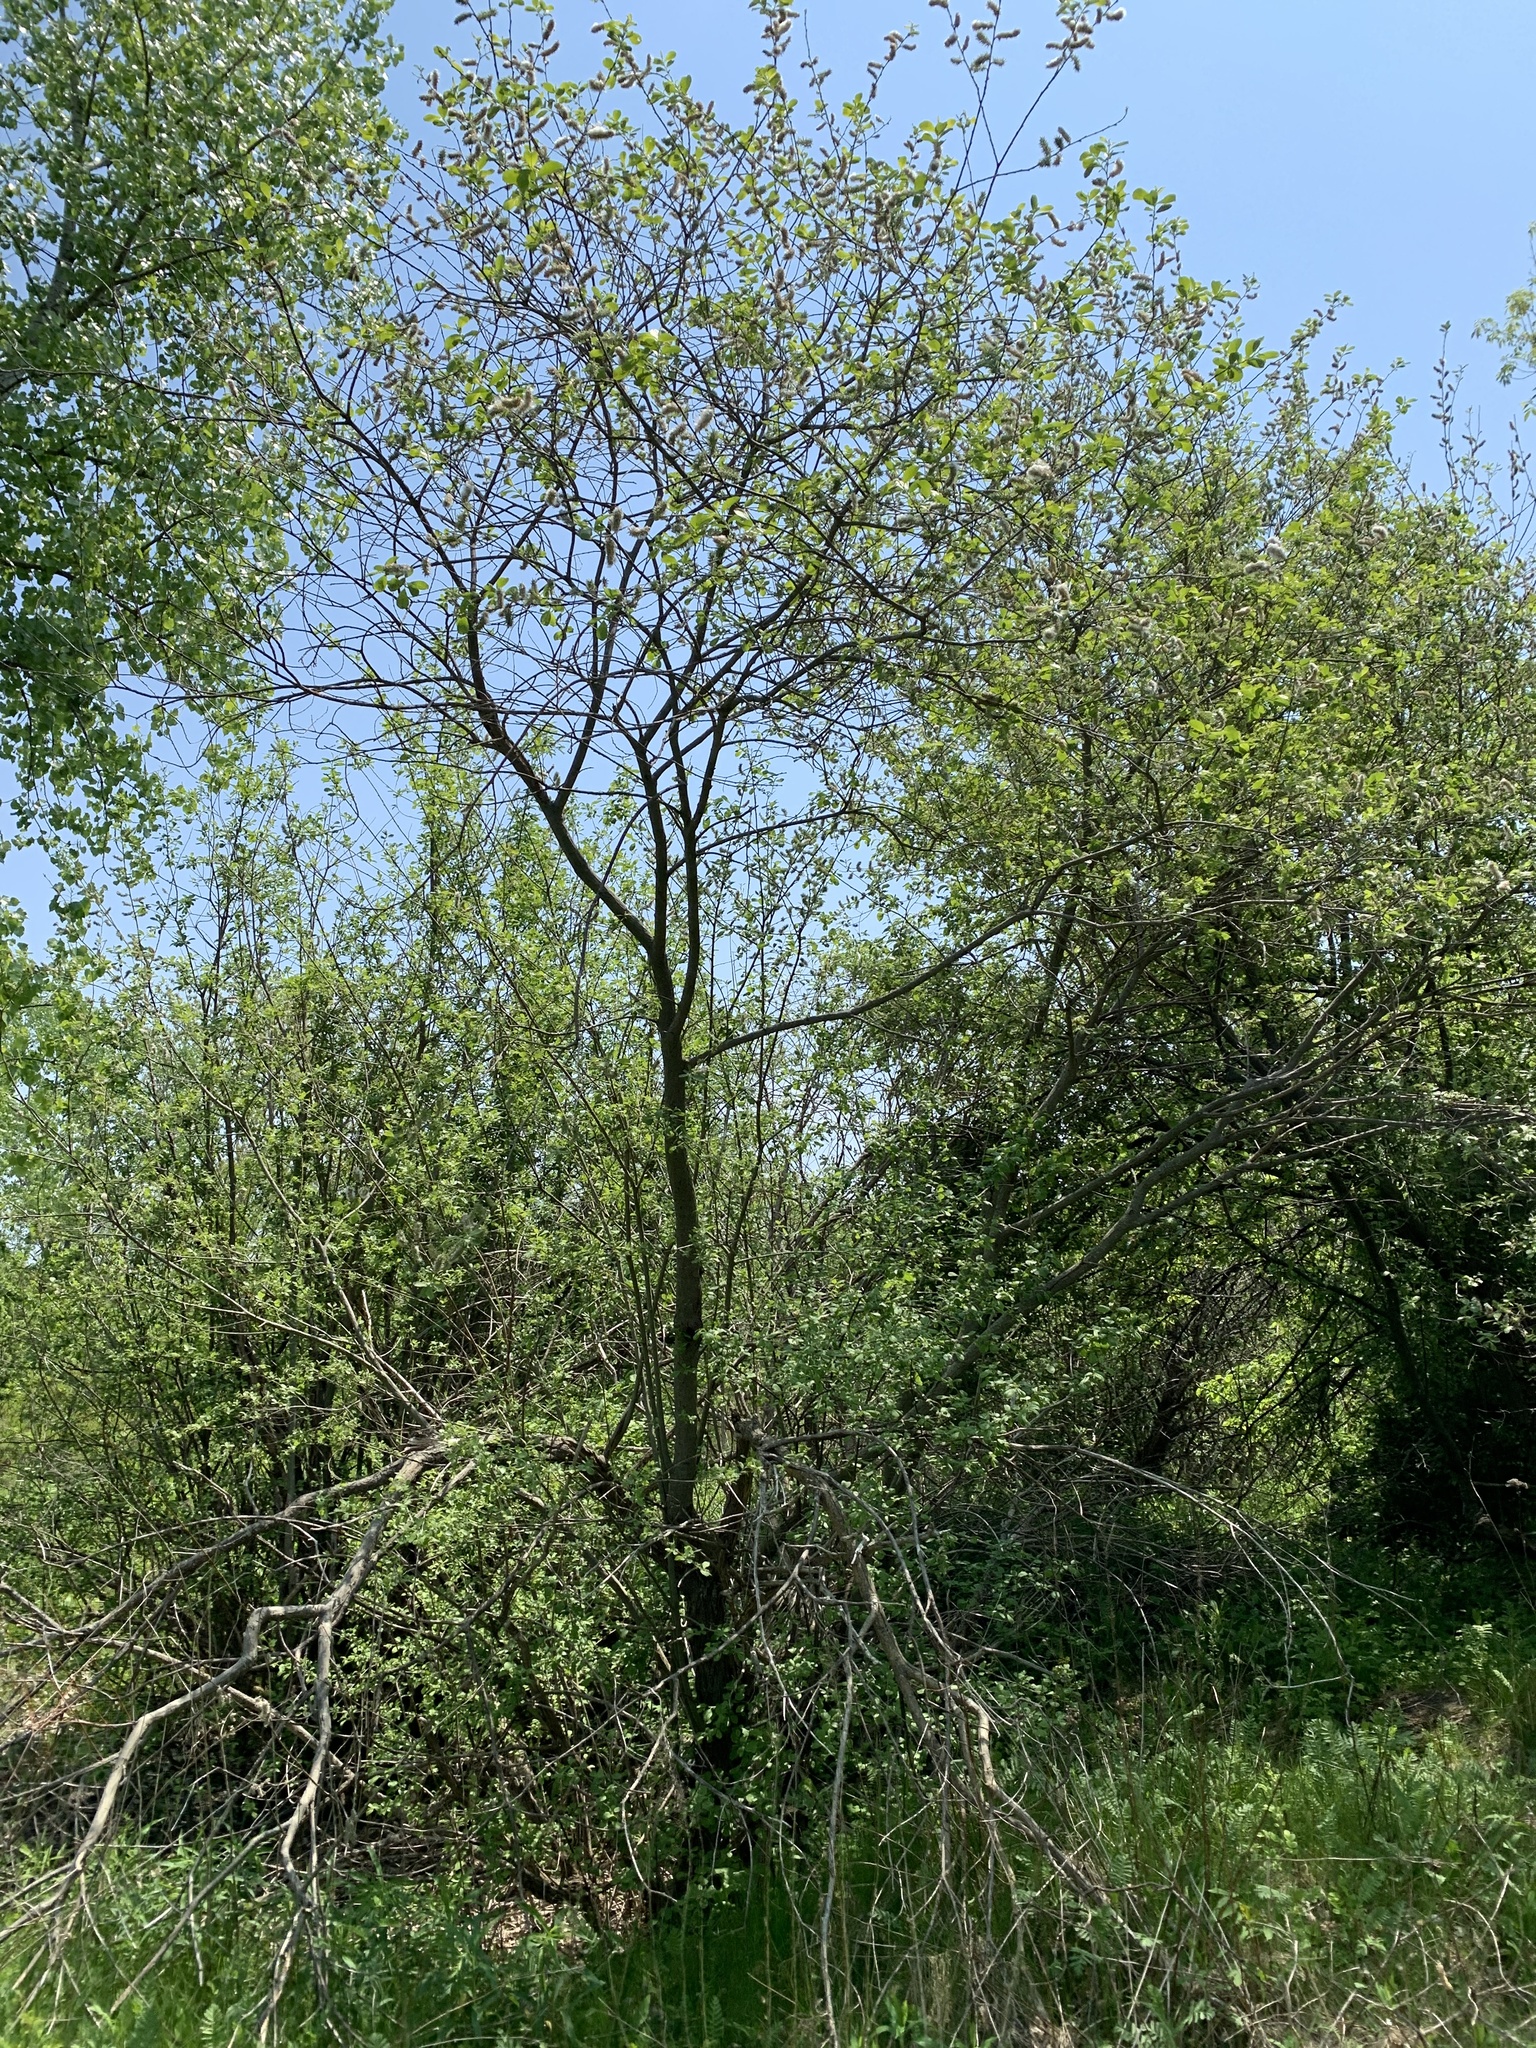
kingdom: Plantae
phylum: Tracheophyta
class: Magnoliopsida
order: Malpighiales
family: Salicaceae
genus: Salix
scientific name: Salix atrocinerea
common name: Rusty willow
